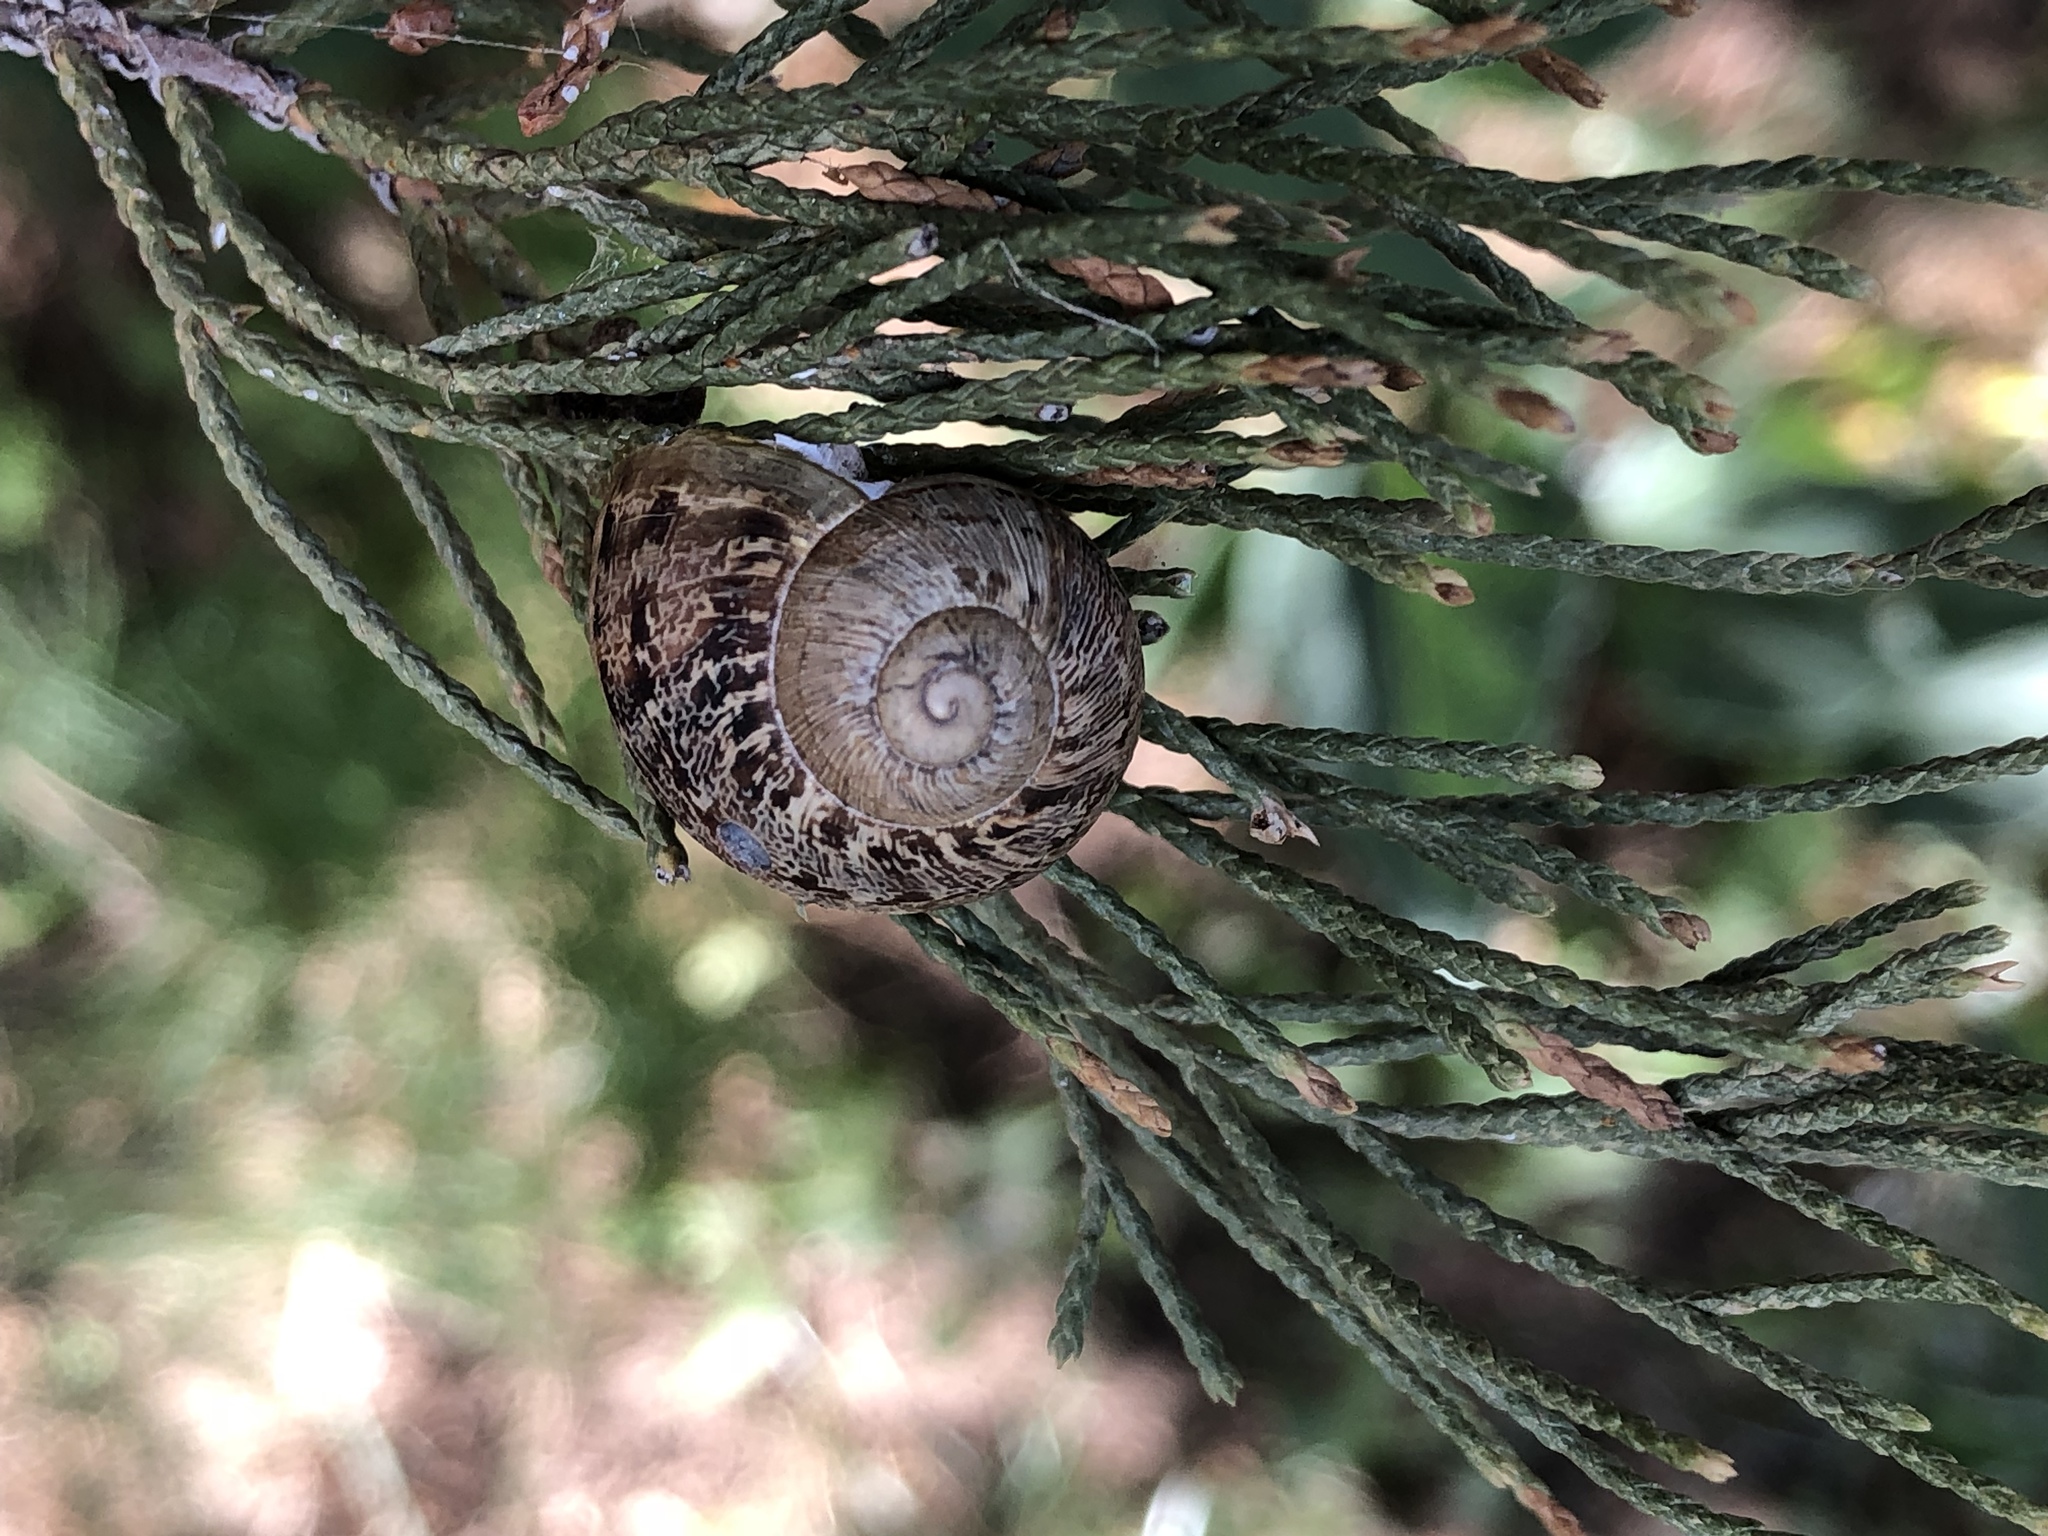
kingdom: Animalia
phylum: Mollusca
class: Gastropoda
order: Stylommatophora
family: Helicidae
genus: Cornu
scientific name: Cornu aspersum
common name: Brown garden snail
